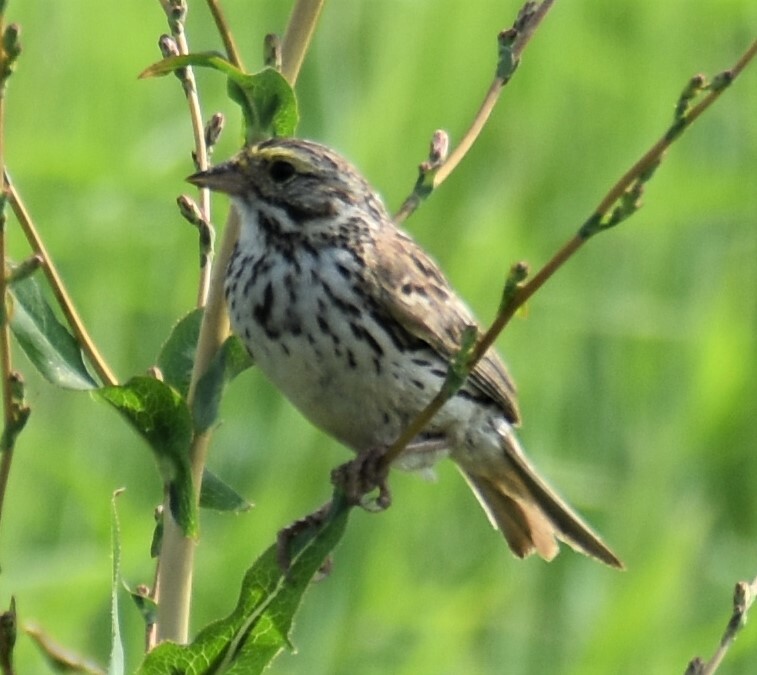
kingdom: Animalia
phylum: Chordata
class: Aves
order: Passeriformes
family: Passerellidae
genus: Passerculus
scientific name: Passerculus sandwichensis
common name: Savannah sparrow
